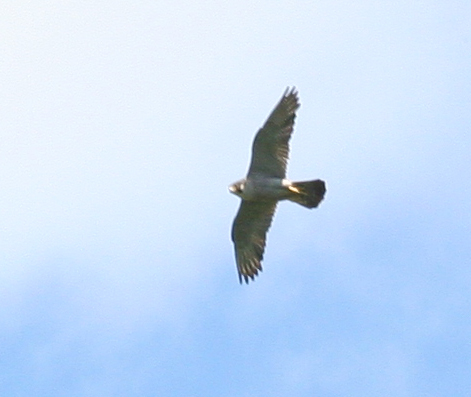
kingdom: Animalia
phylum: Chordata
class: Aves
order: Falconiformes
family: Falconidae
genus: Falco
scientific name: Falco peregrinus
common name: Peregrine falcon
